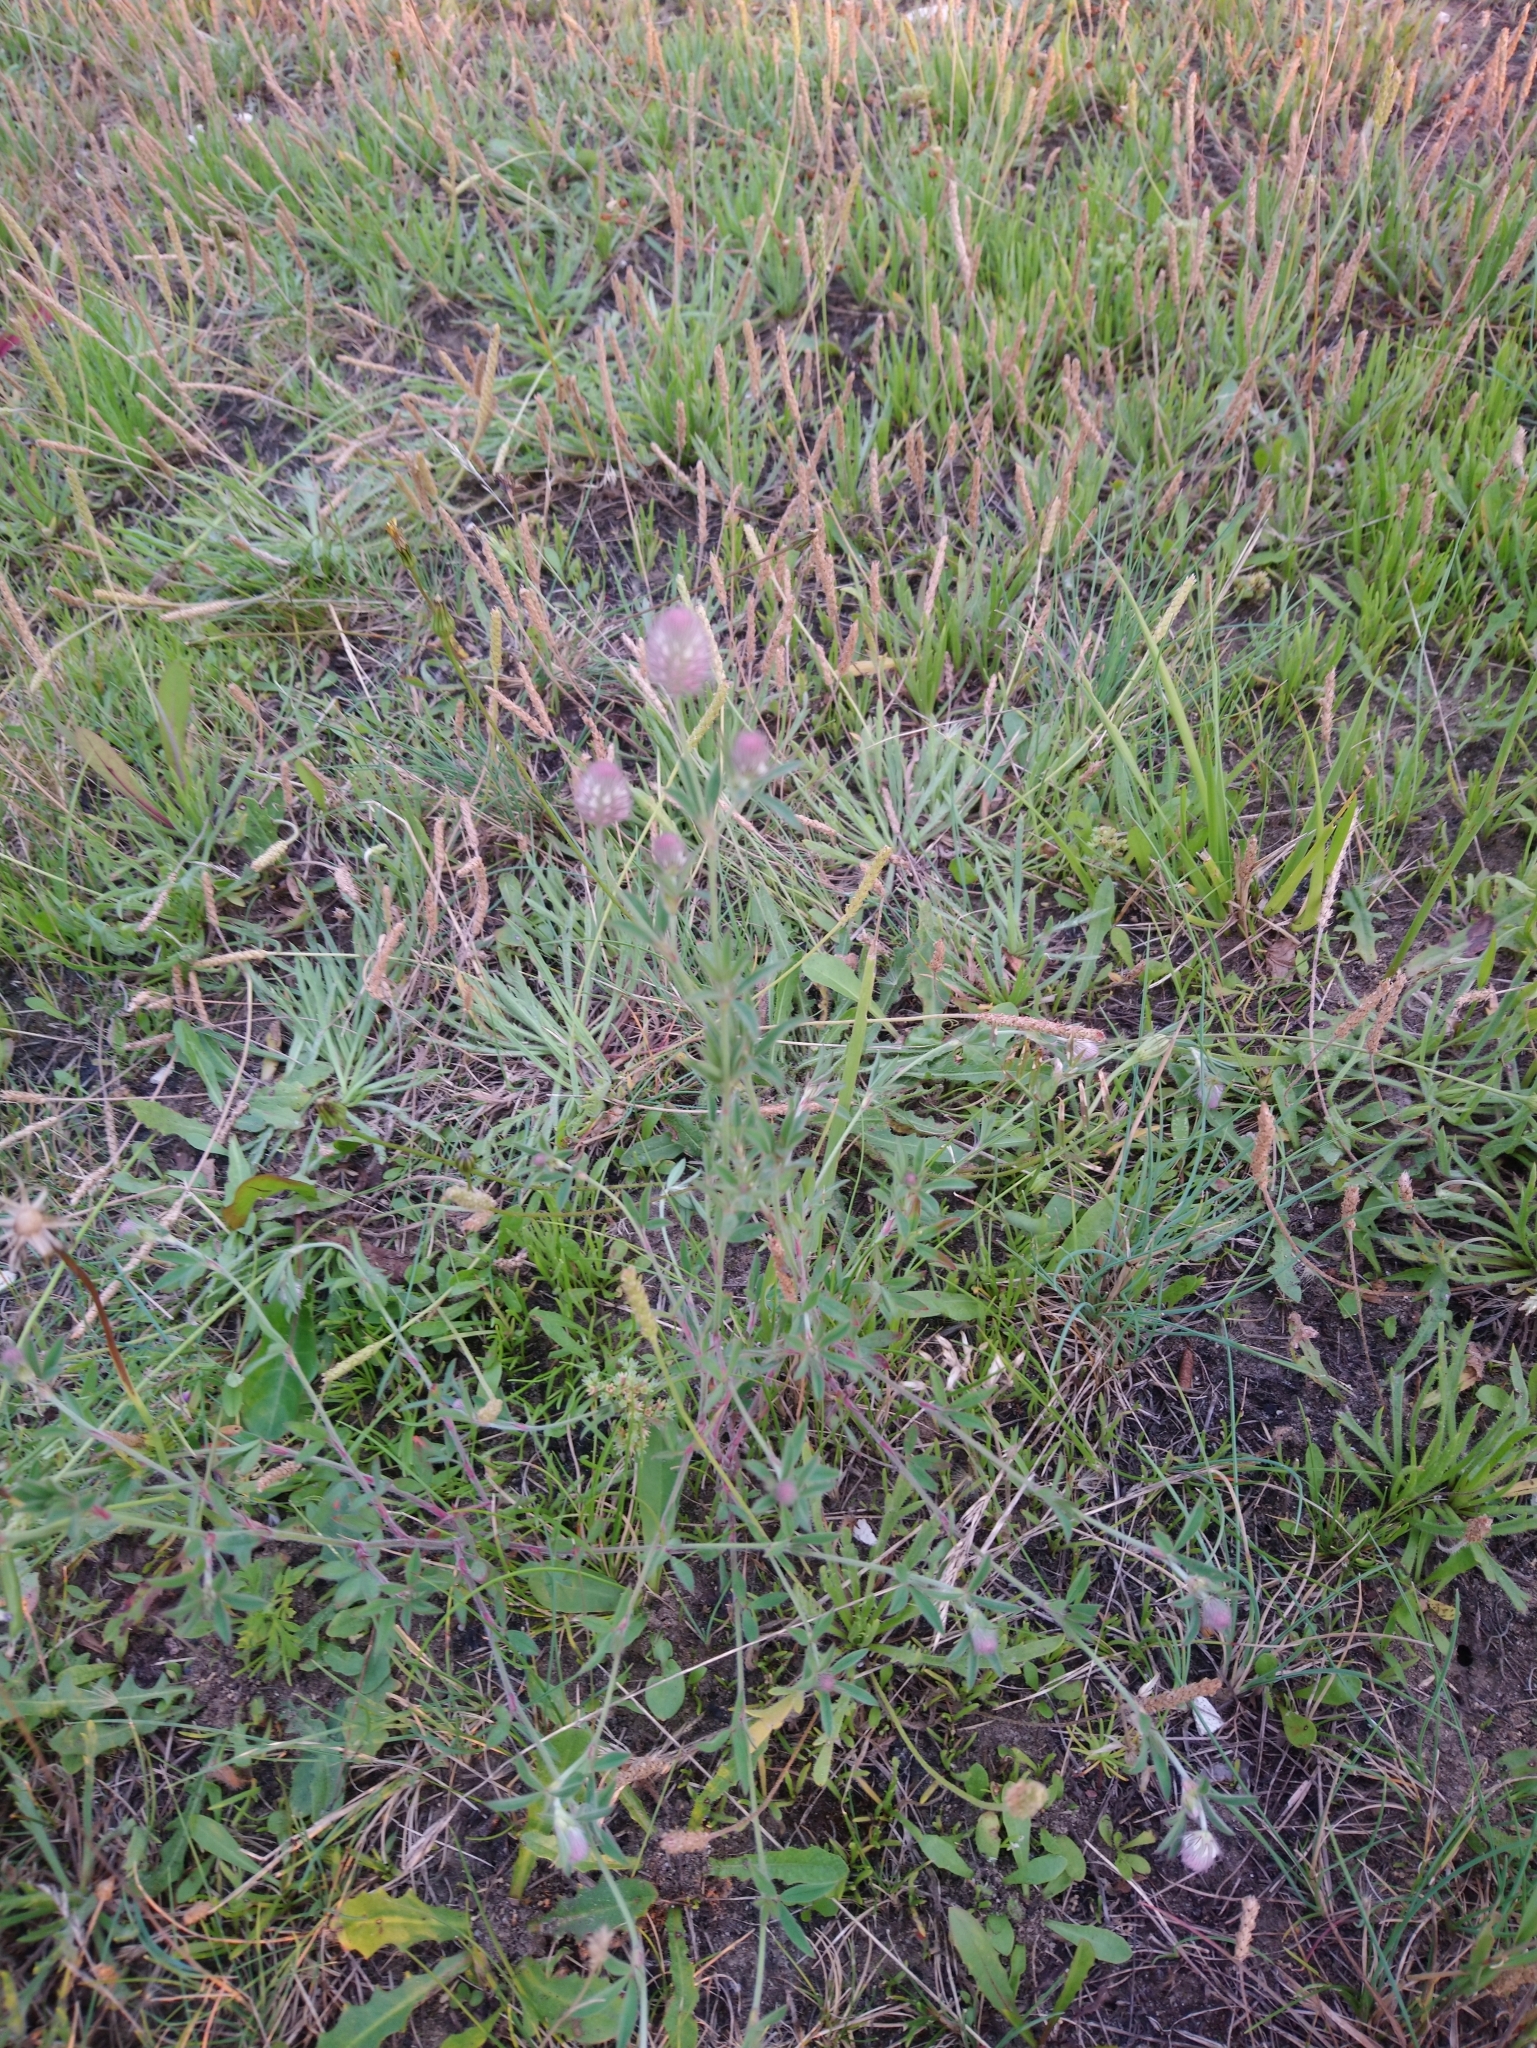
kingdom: Plantae
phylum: Tracheophyta
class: Magnoliopsida
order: Fabales
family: Fabaceae
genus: Trifolium
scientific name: Trifolium arvense
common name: Hare's-foot clover
